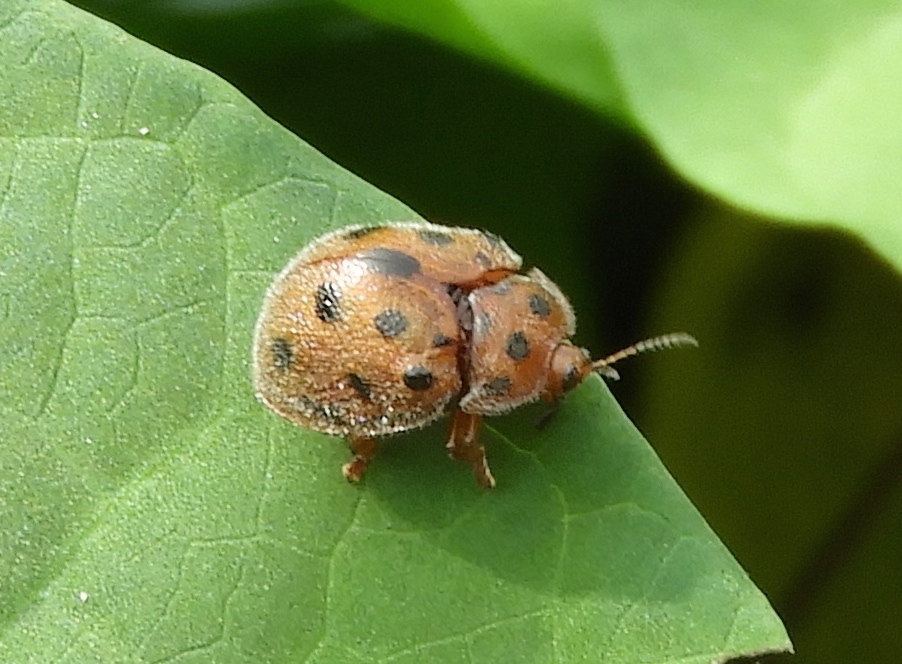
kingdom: Animalia
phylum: Arthropoda
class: Insecta
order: Coleoptera
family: Chrysomelidae
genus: Chelymorpha
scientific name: Chelymorpha
